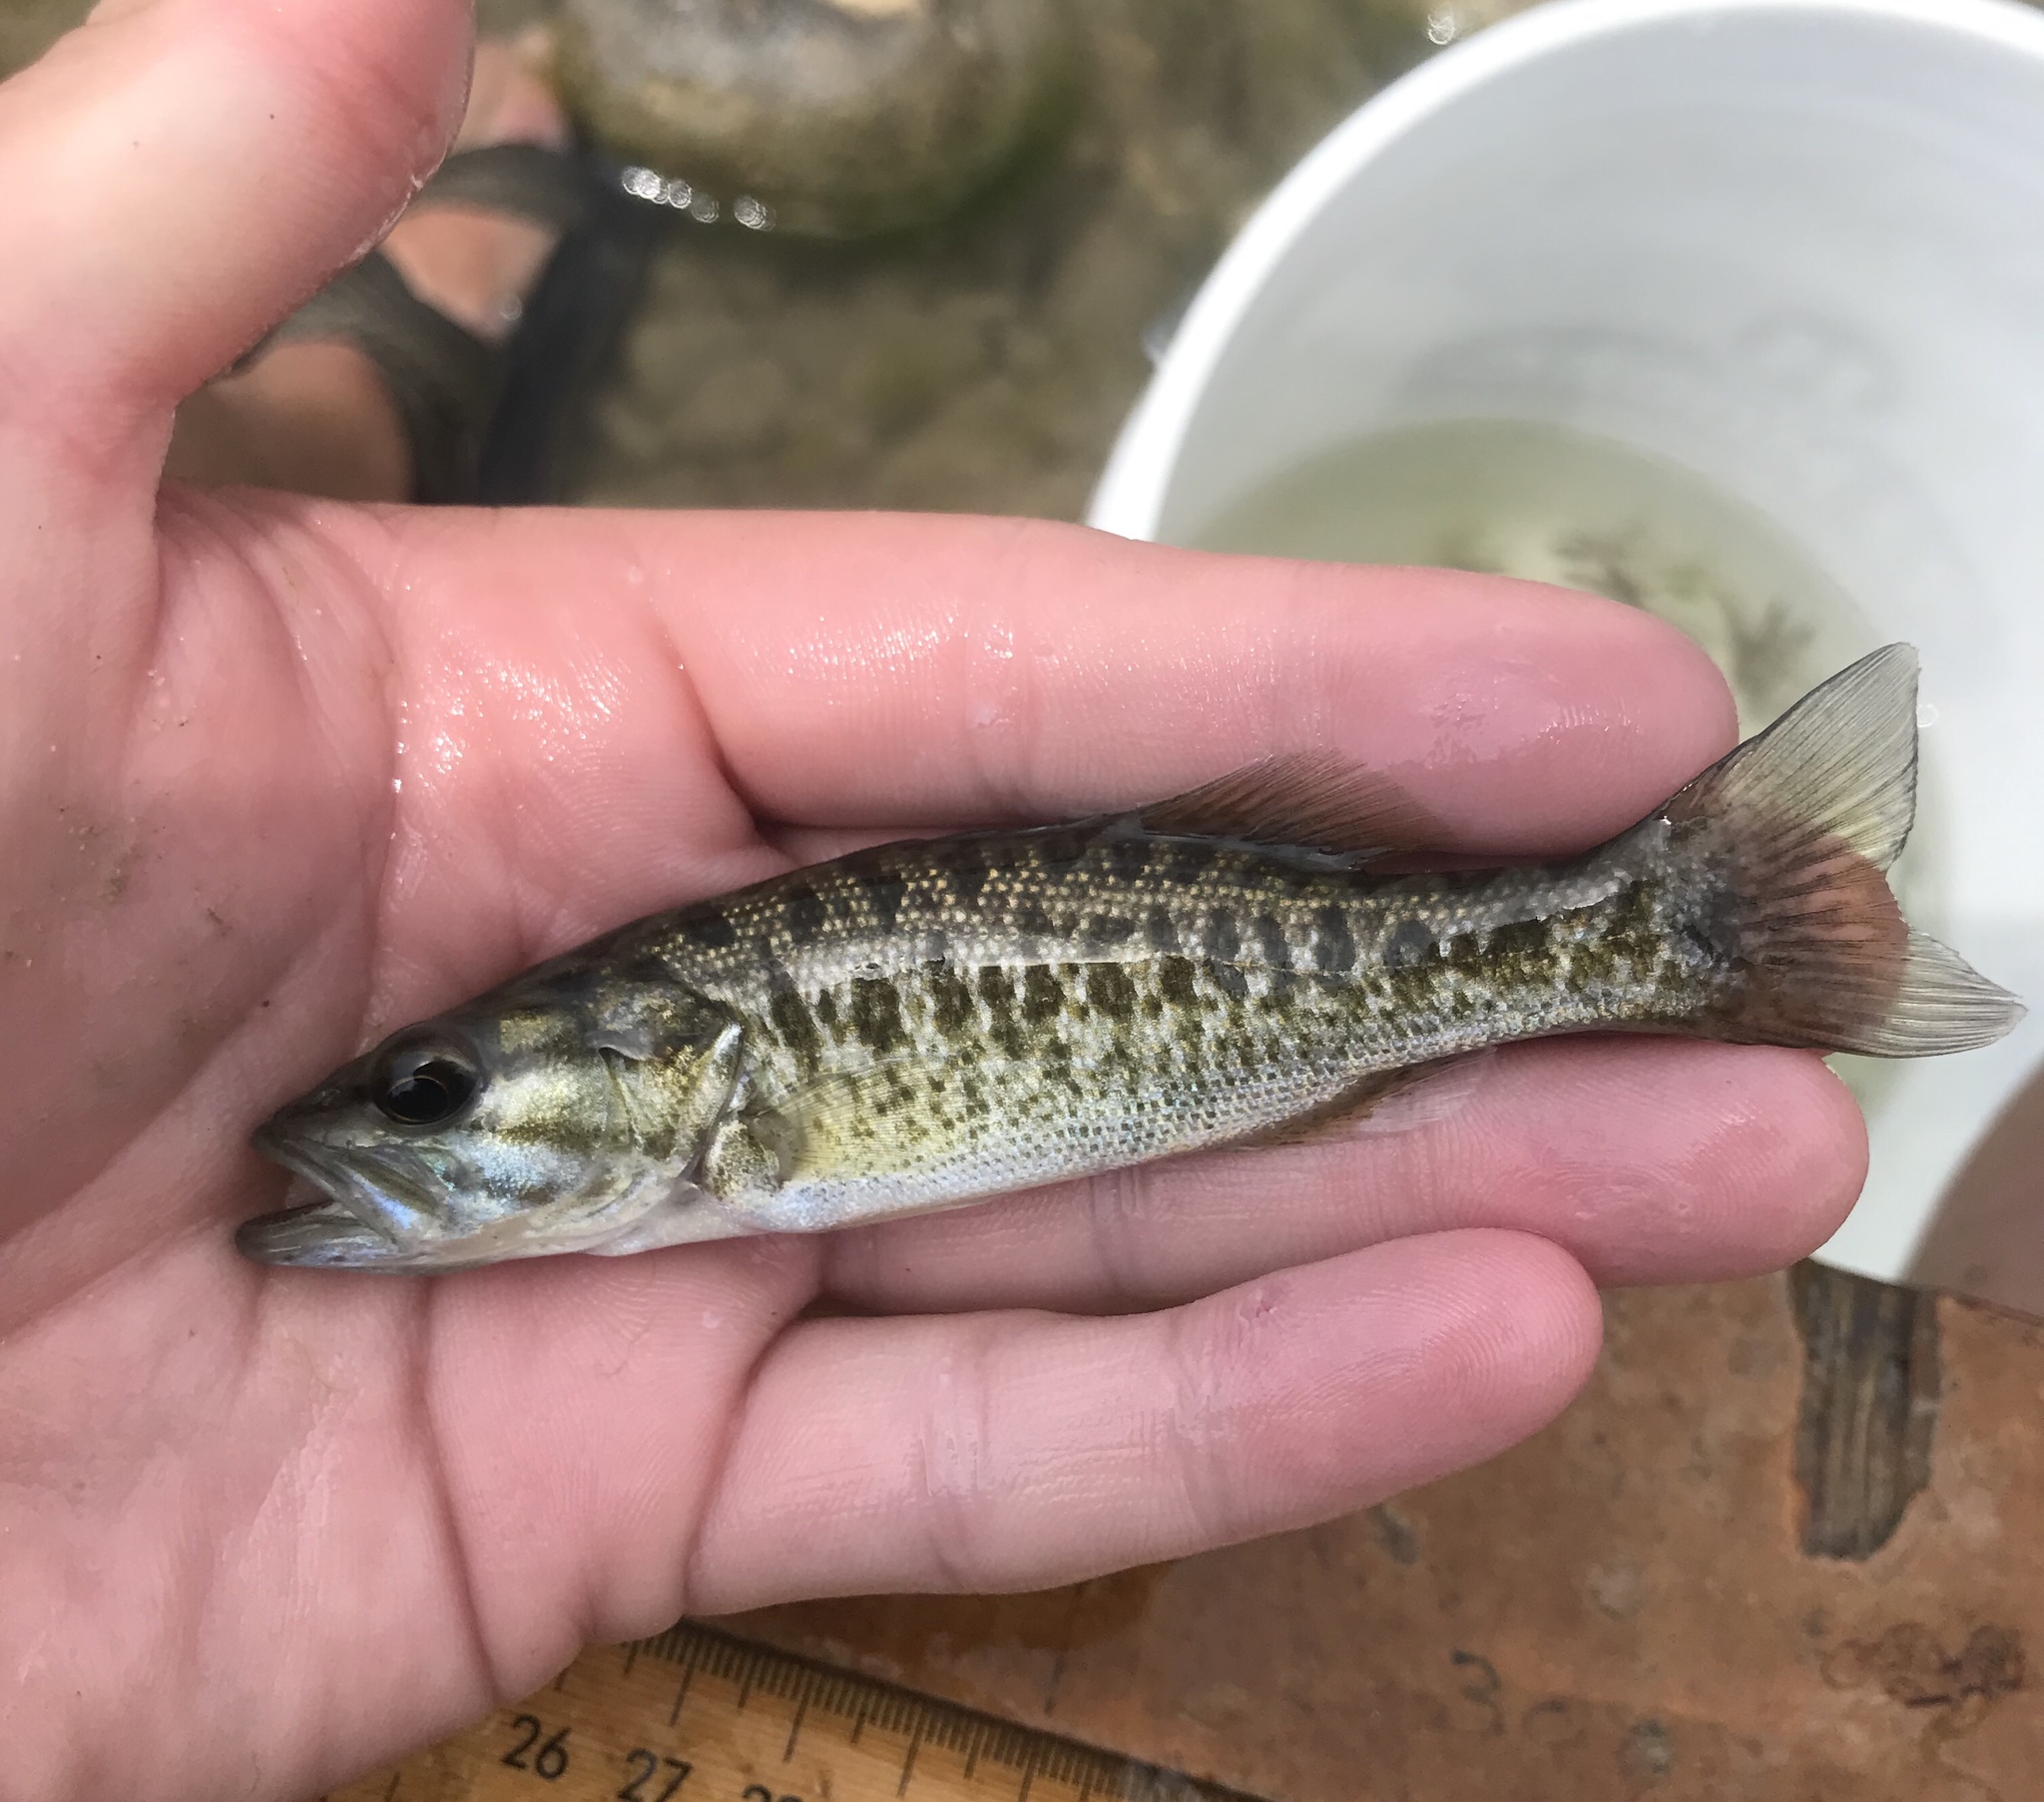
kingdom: Animalia
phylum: Chordata
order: Perciformes
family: Centrarchidae
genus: Micropterus
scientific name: Micropterus treculii
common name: Guadalupe bass
